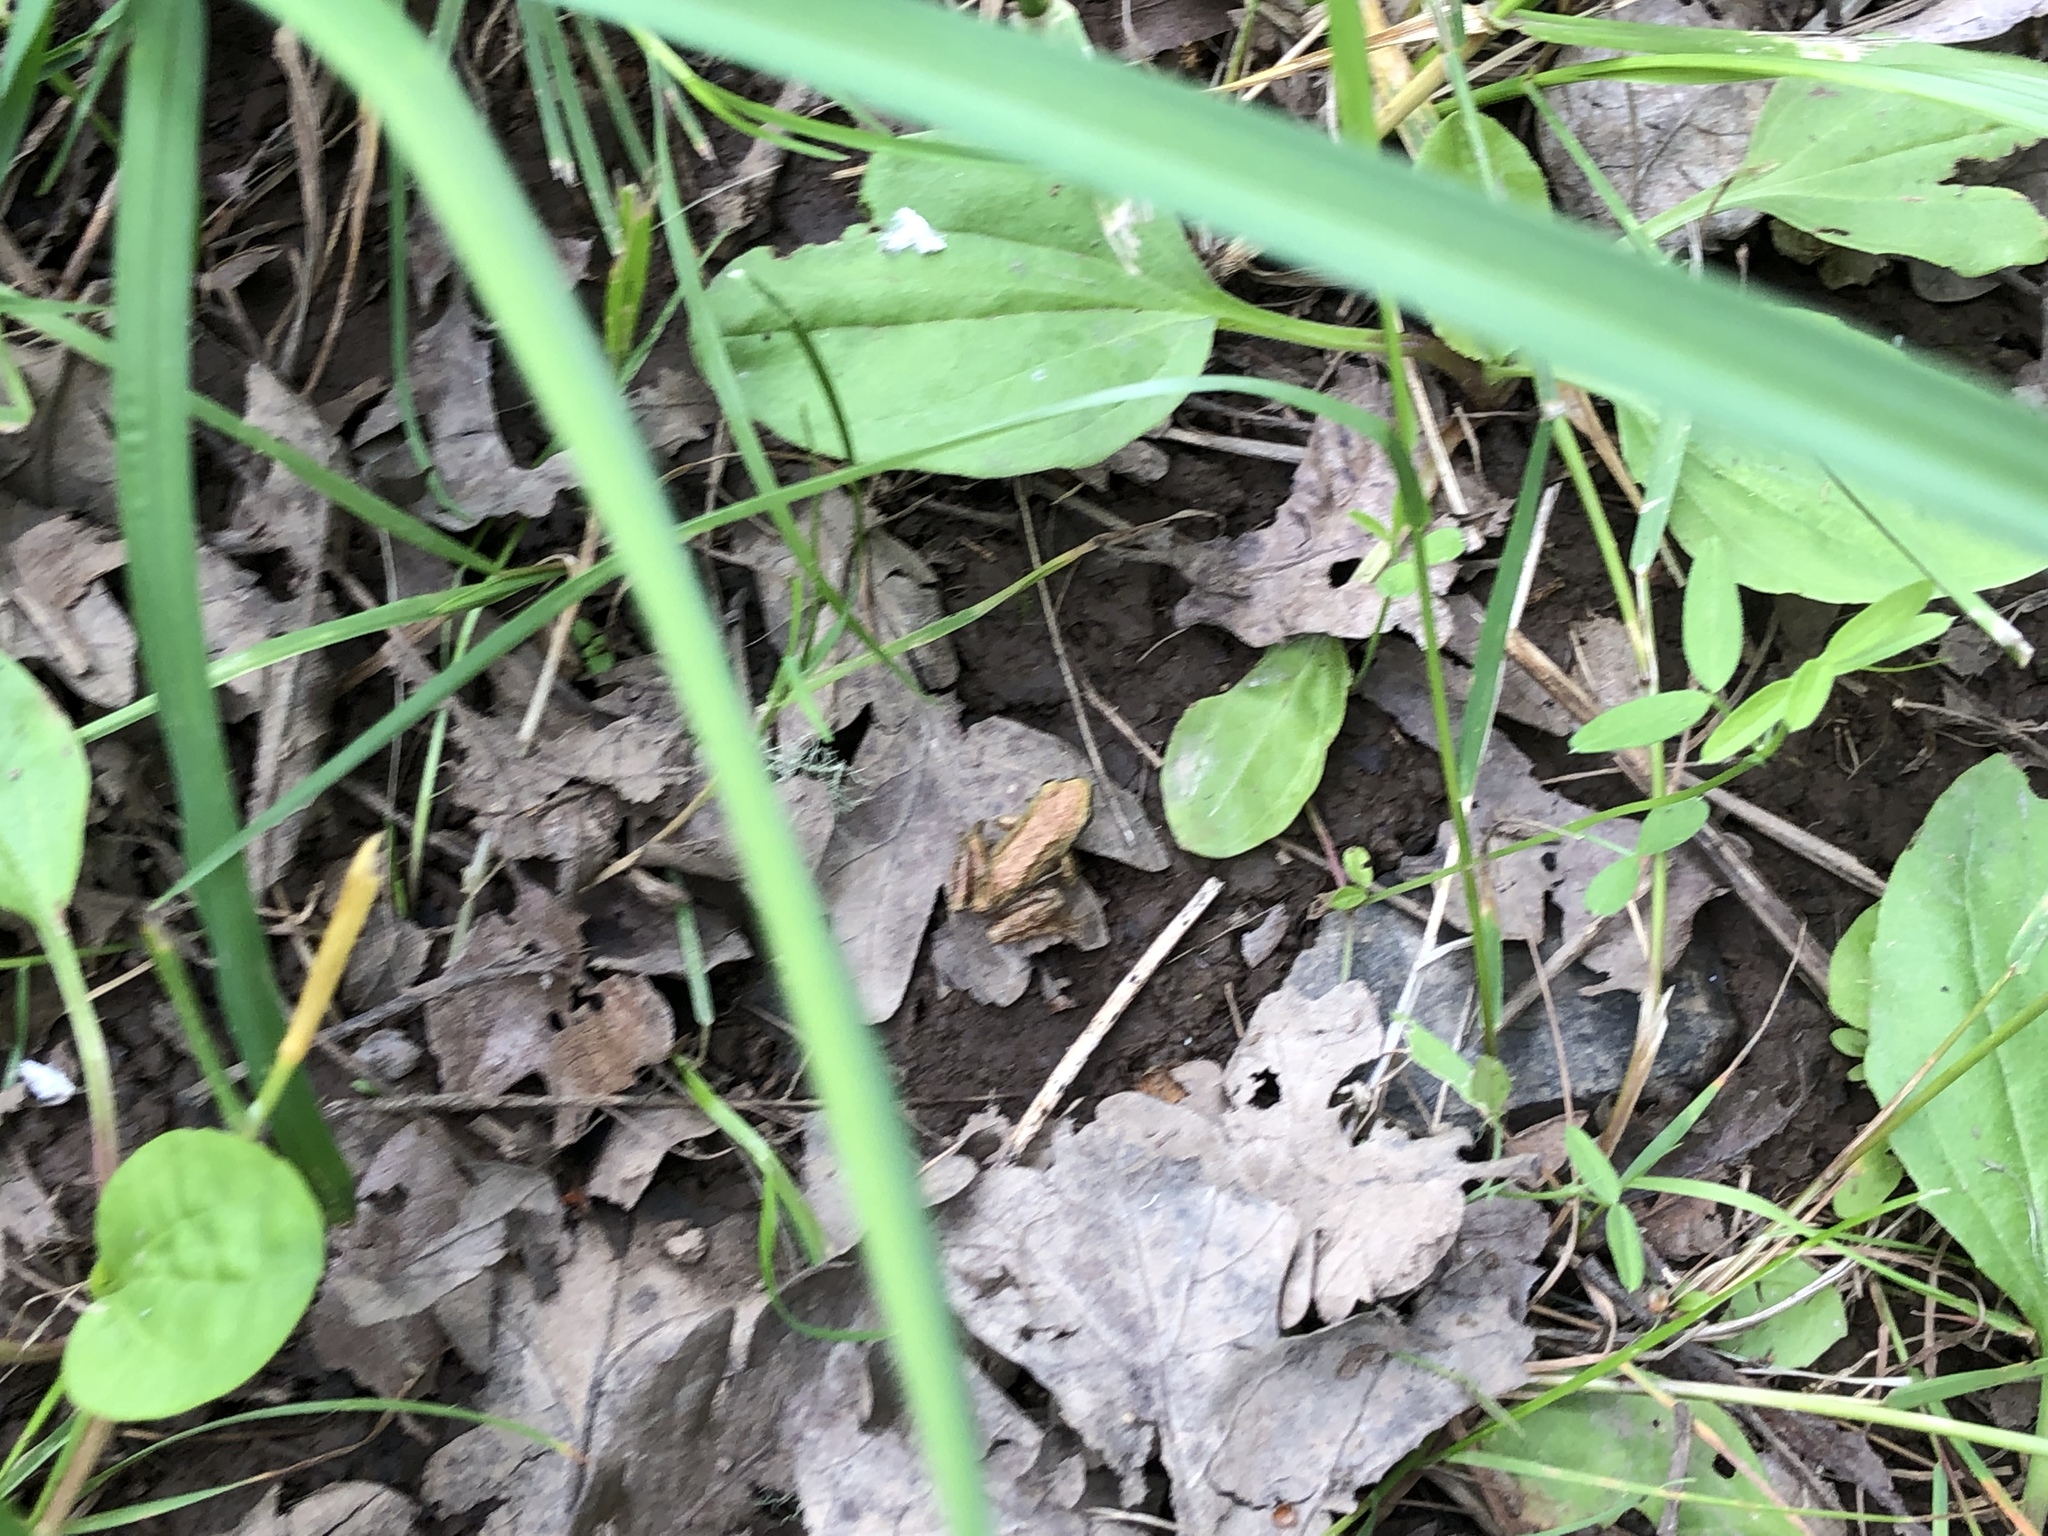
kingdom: Animalia
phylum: Chordata
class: Amphibia
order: Anura
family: Hylidae
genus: Pseudacris
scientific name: Pseudacris regilla
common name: Pacific chorus frog
